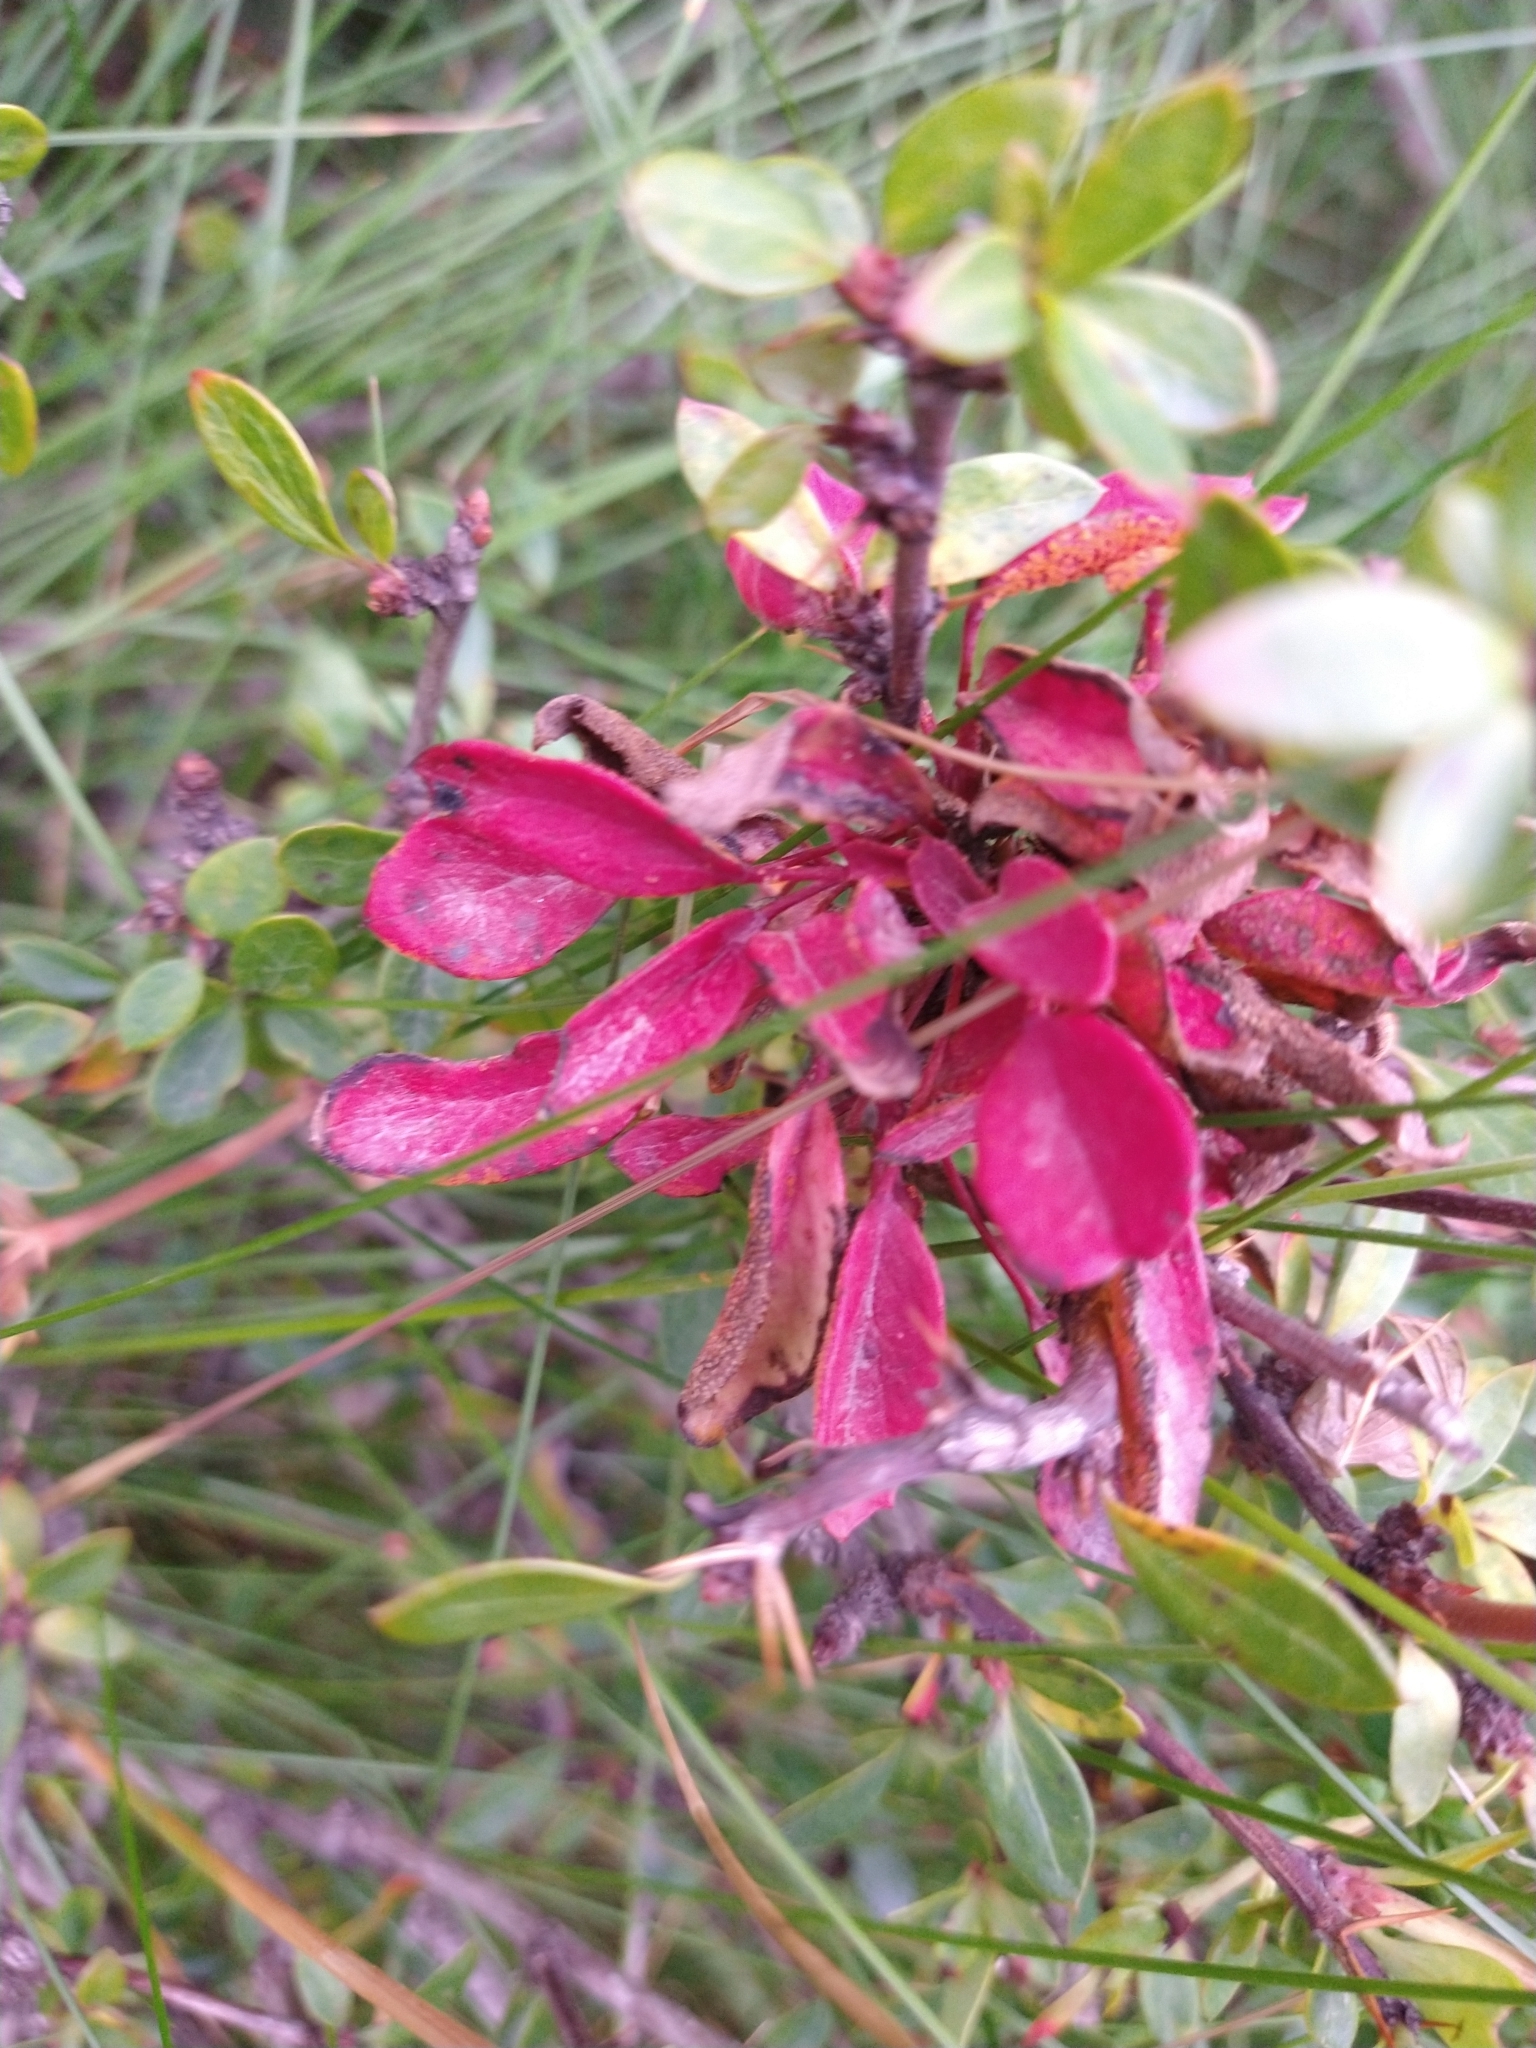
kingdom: Fungi
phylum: Basidiomycota
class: Pucciniomycetes
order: Pucciniales
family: Pucciniaceae
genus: Puccinia
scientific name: Puccinia magellanica
